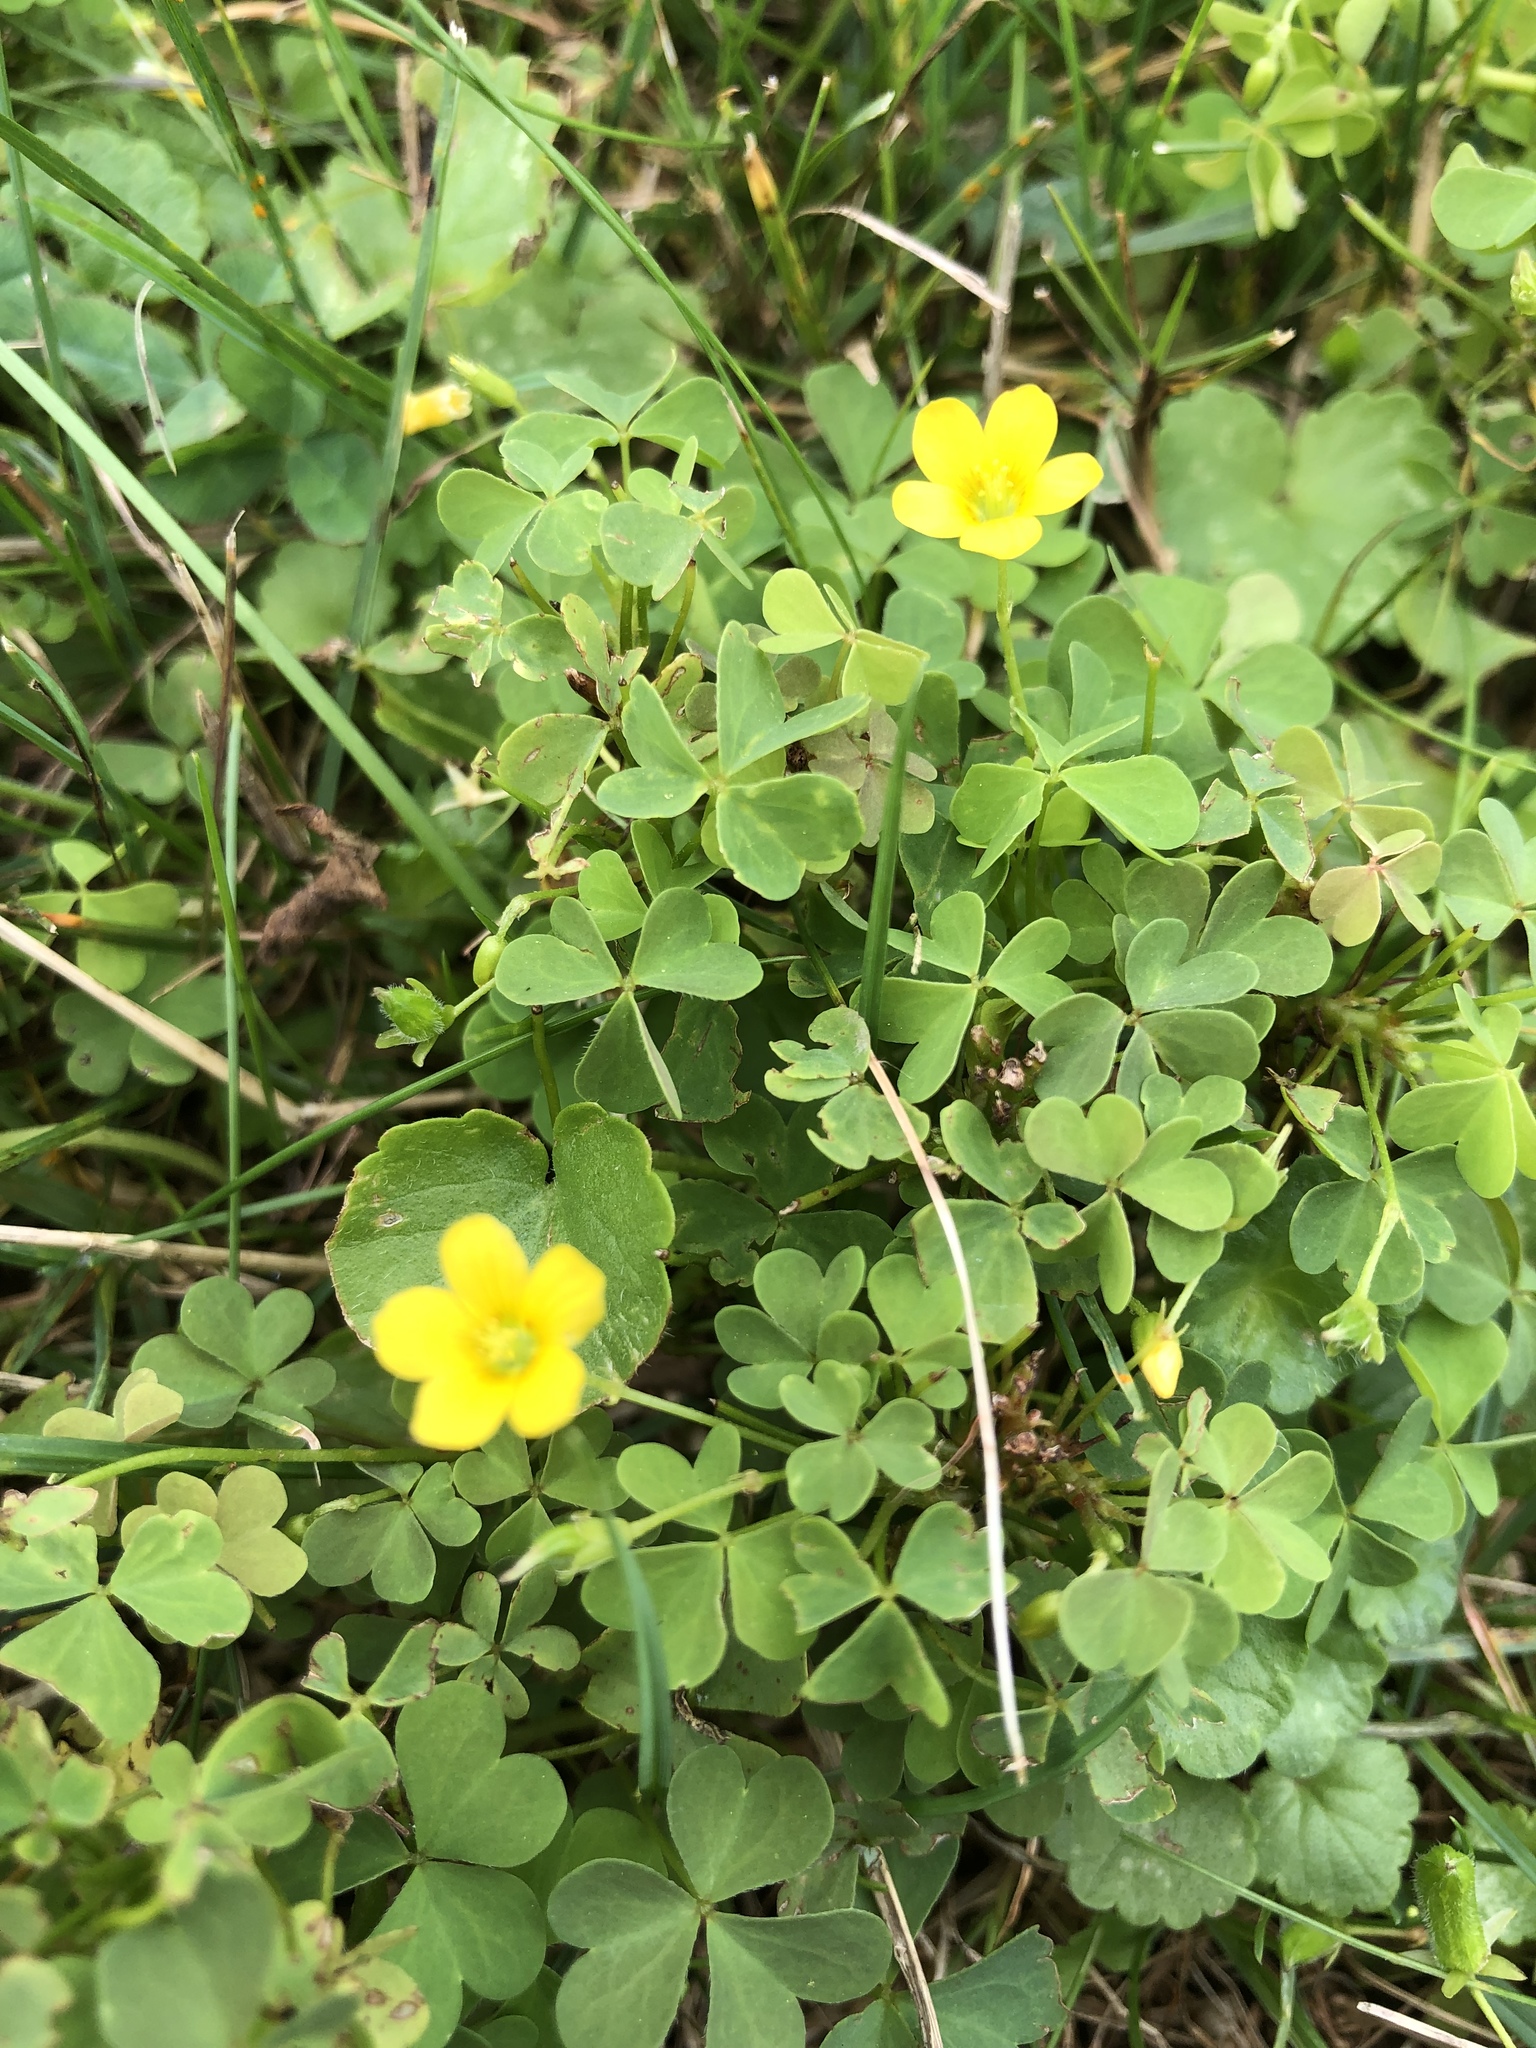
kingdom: Plantae
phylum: Tracheophyta
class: Magnoliopsida
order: Oxalidales
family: Oxalidaceae
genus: Oxalis
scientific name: Oxalis corniculata
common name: Procumbent yellow-sorrel
